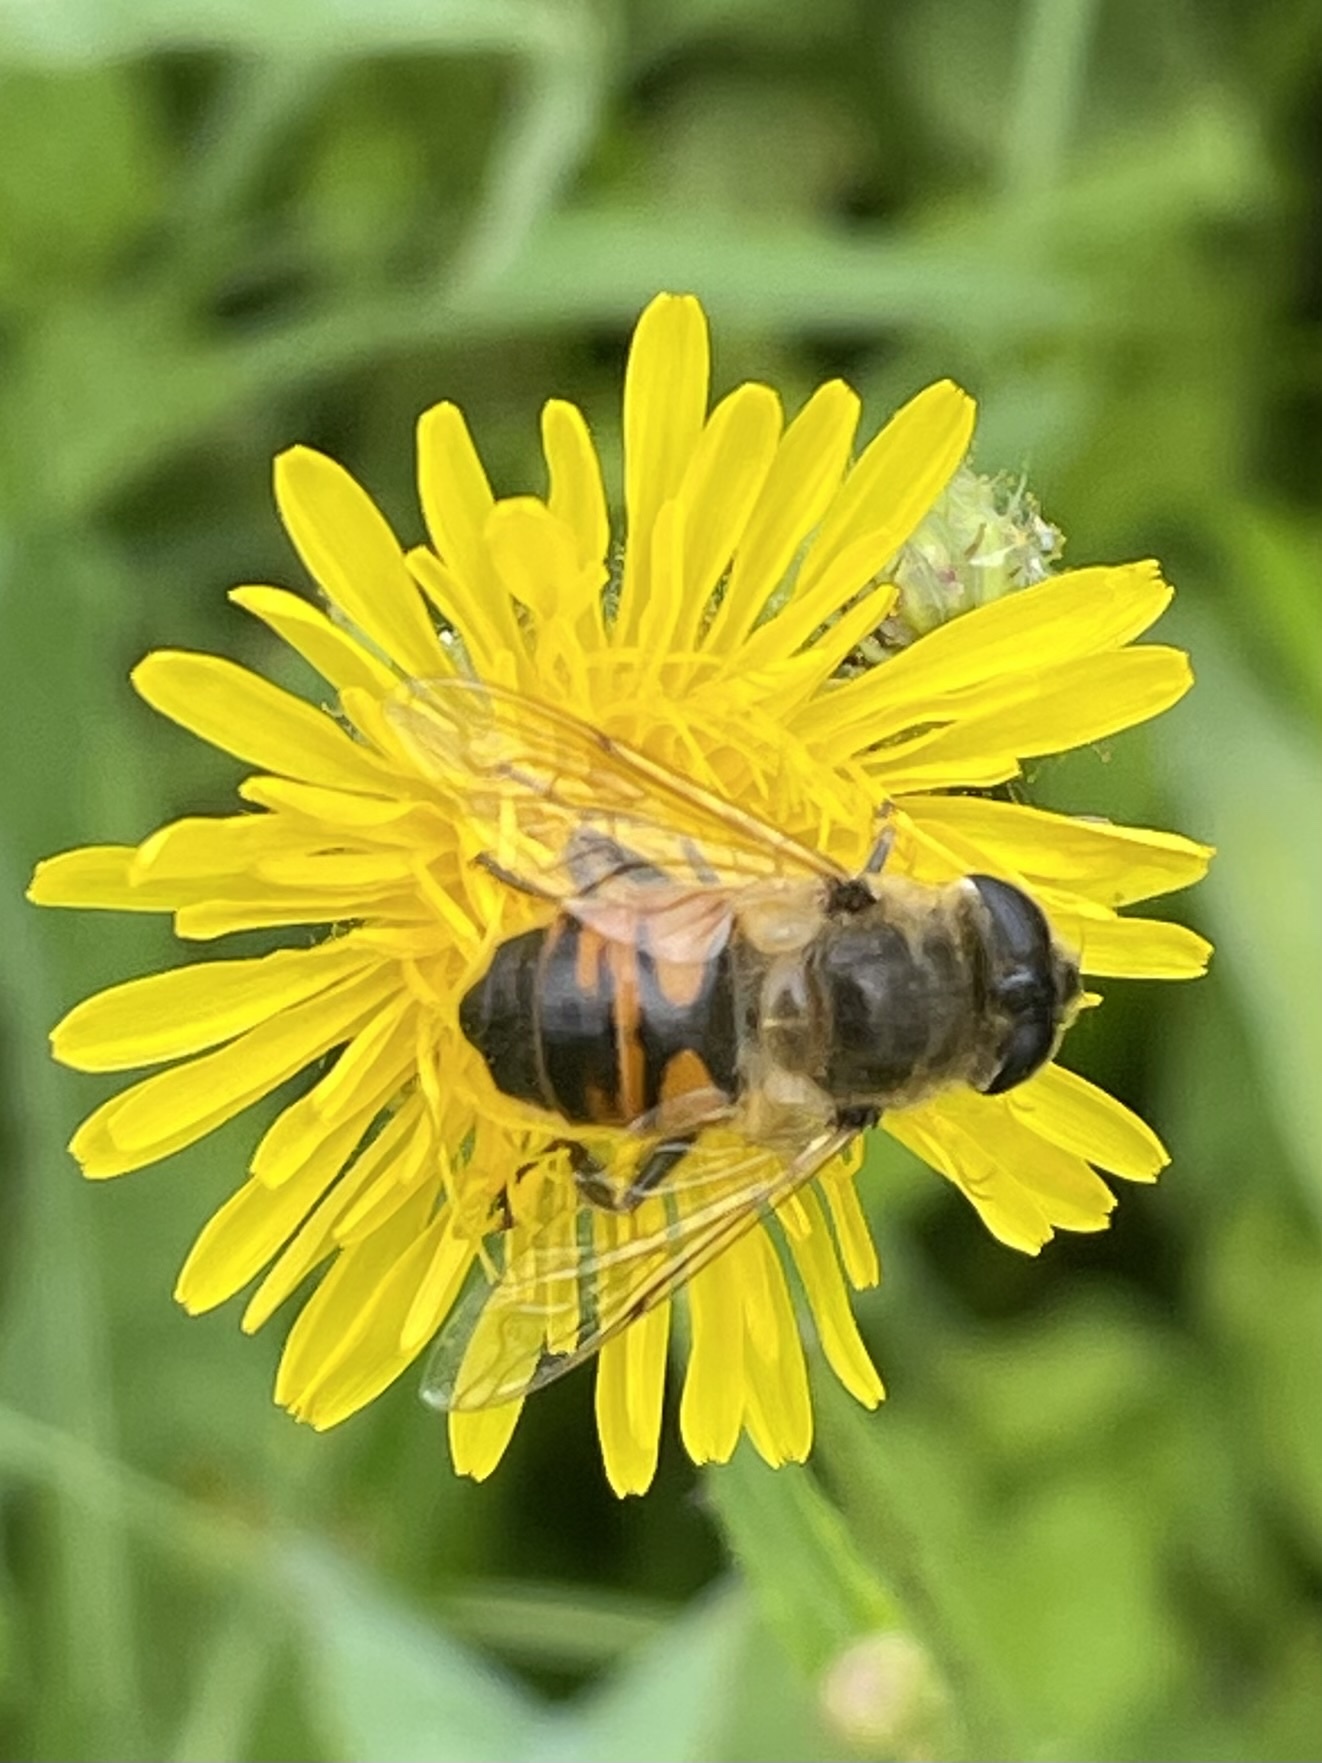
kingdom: Animalia
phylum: Arthropoda
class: Insecta
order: Diptera
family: Syrphidae
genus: Eristalis
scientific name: Eristalis tenax
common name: Drone fly
